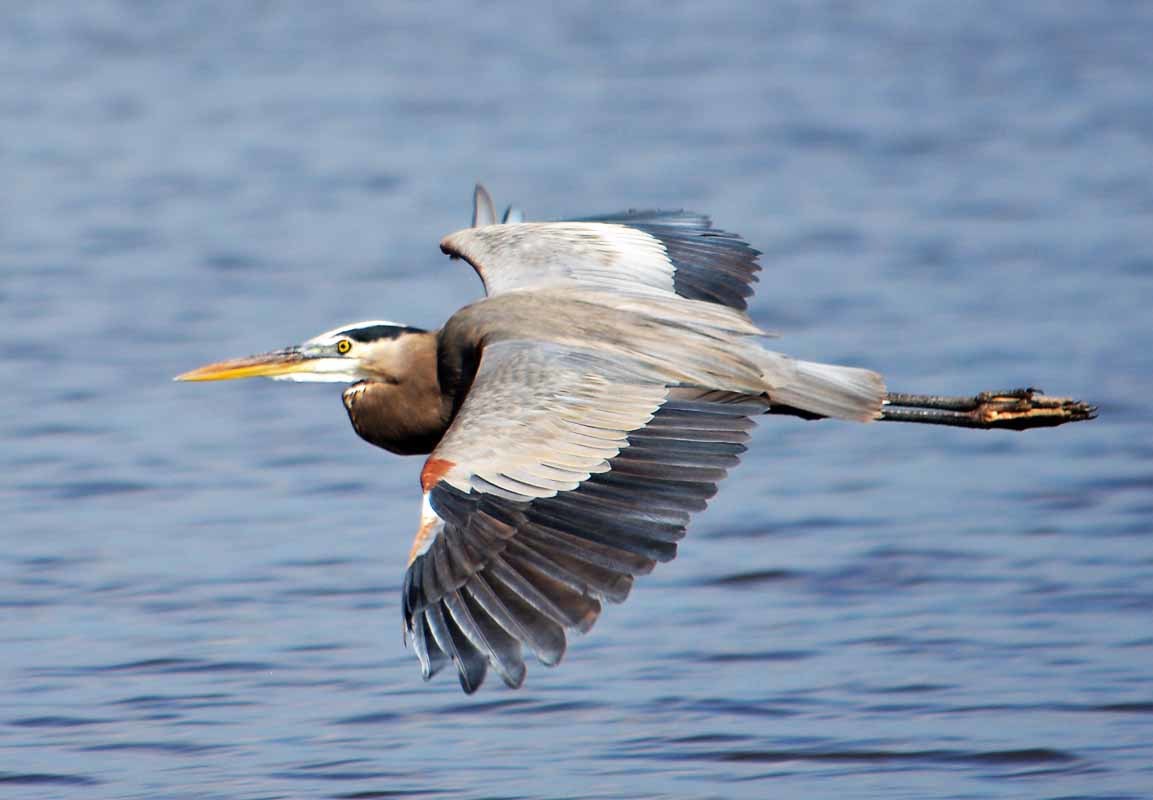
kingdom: Animalia
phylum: Chordata
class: Aves
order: Pelecaniformes
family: Ardeidae
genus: Ardea
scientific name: Ardea herodias
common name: Great blue heron
